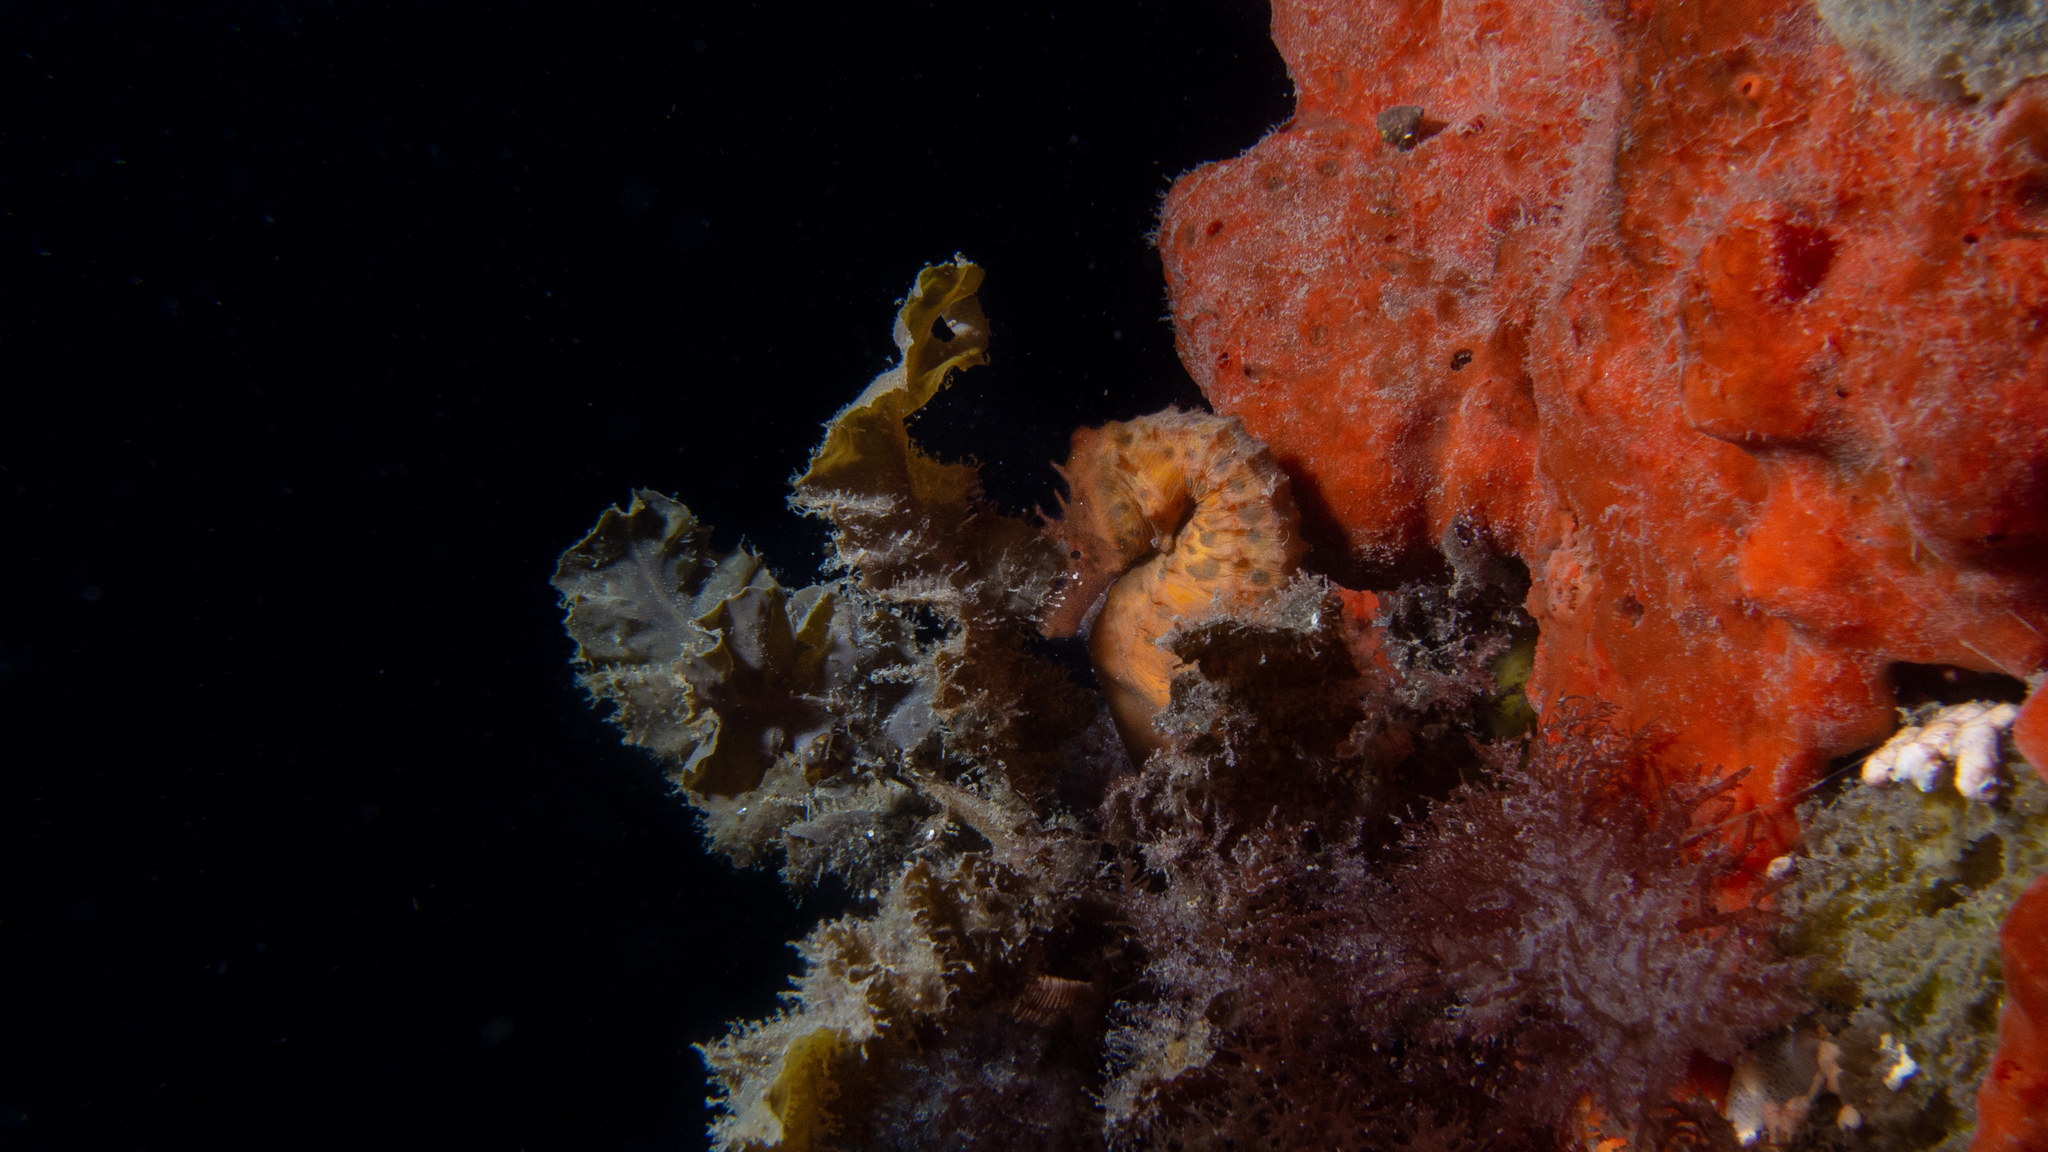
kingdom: Animalia
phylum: Chordata
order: Syngnathiformes
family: Syngnathidae
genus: Hippocampus
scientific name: Hippocampus abdominalis
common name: Big-belly seahorse
